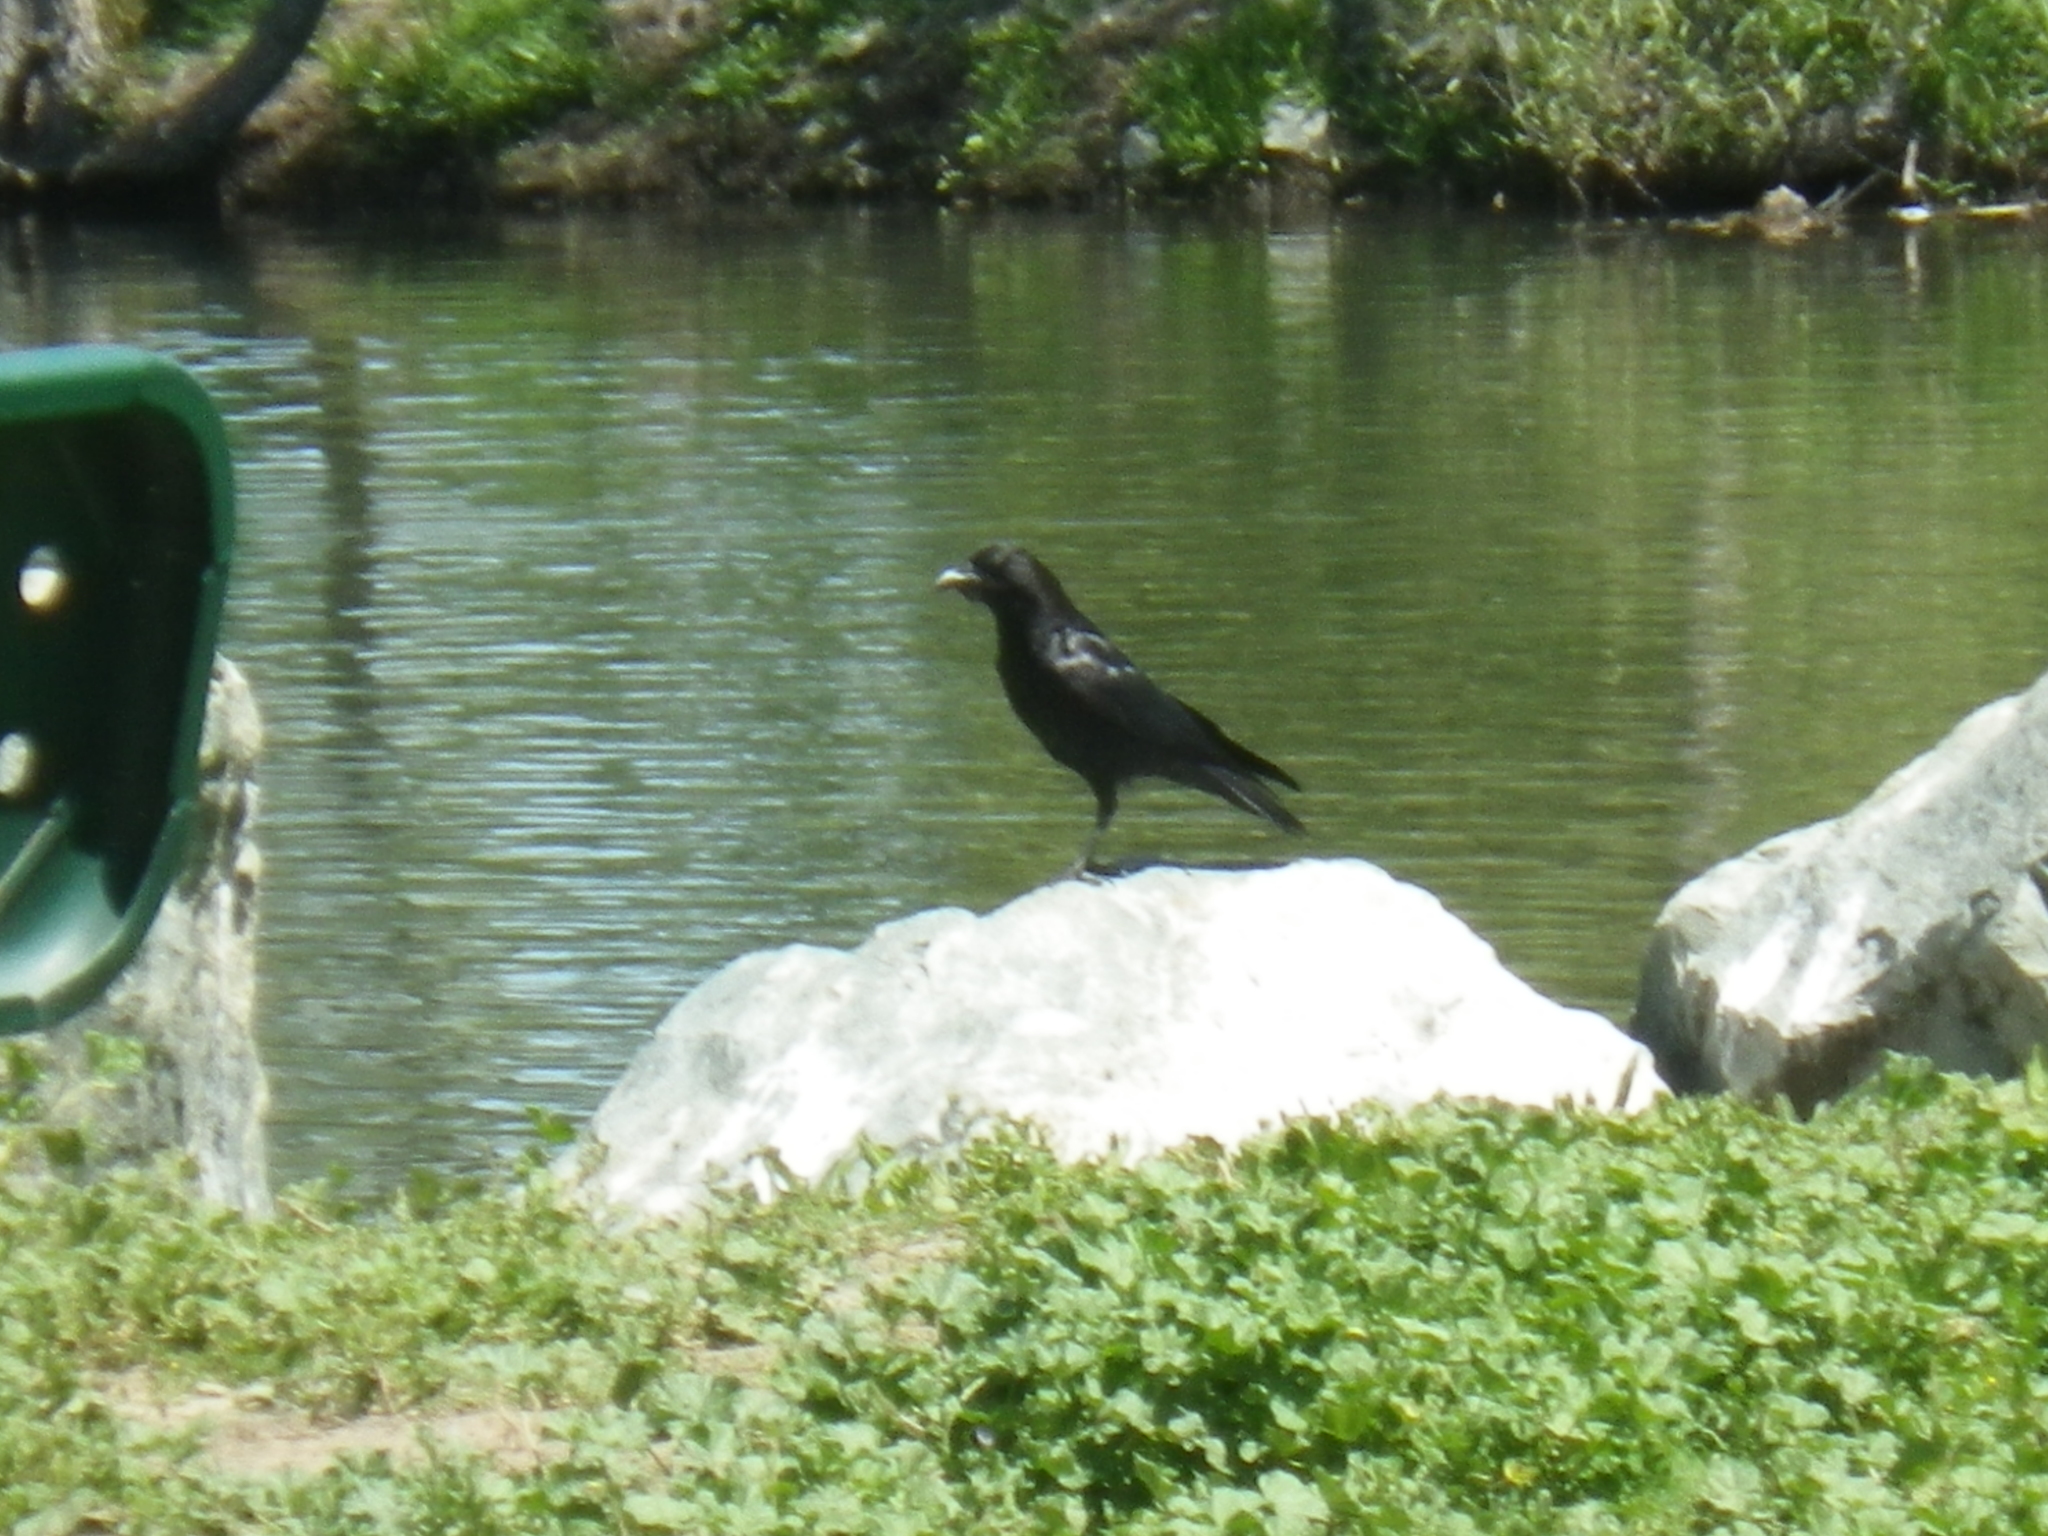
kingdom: Animalia
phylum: Chordata
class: Aves
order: Passeriformes
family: Corvidae
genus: Corvus
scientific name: Corvus brachyrhynchos
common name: American crow
